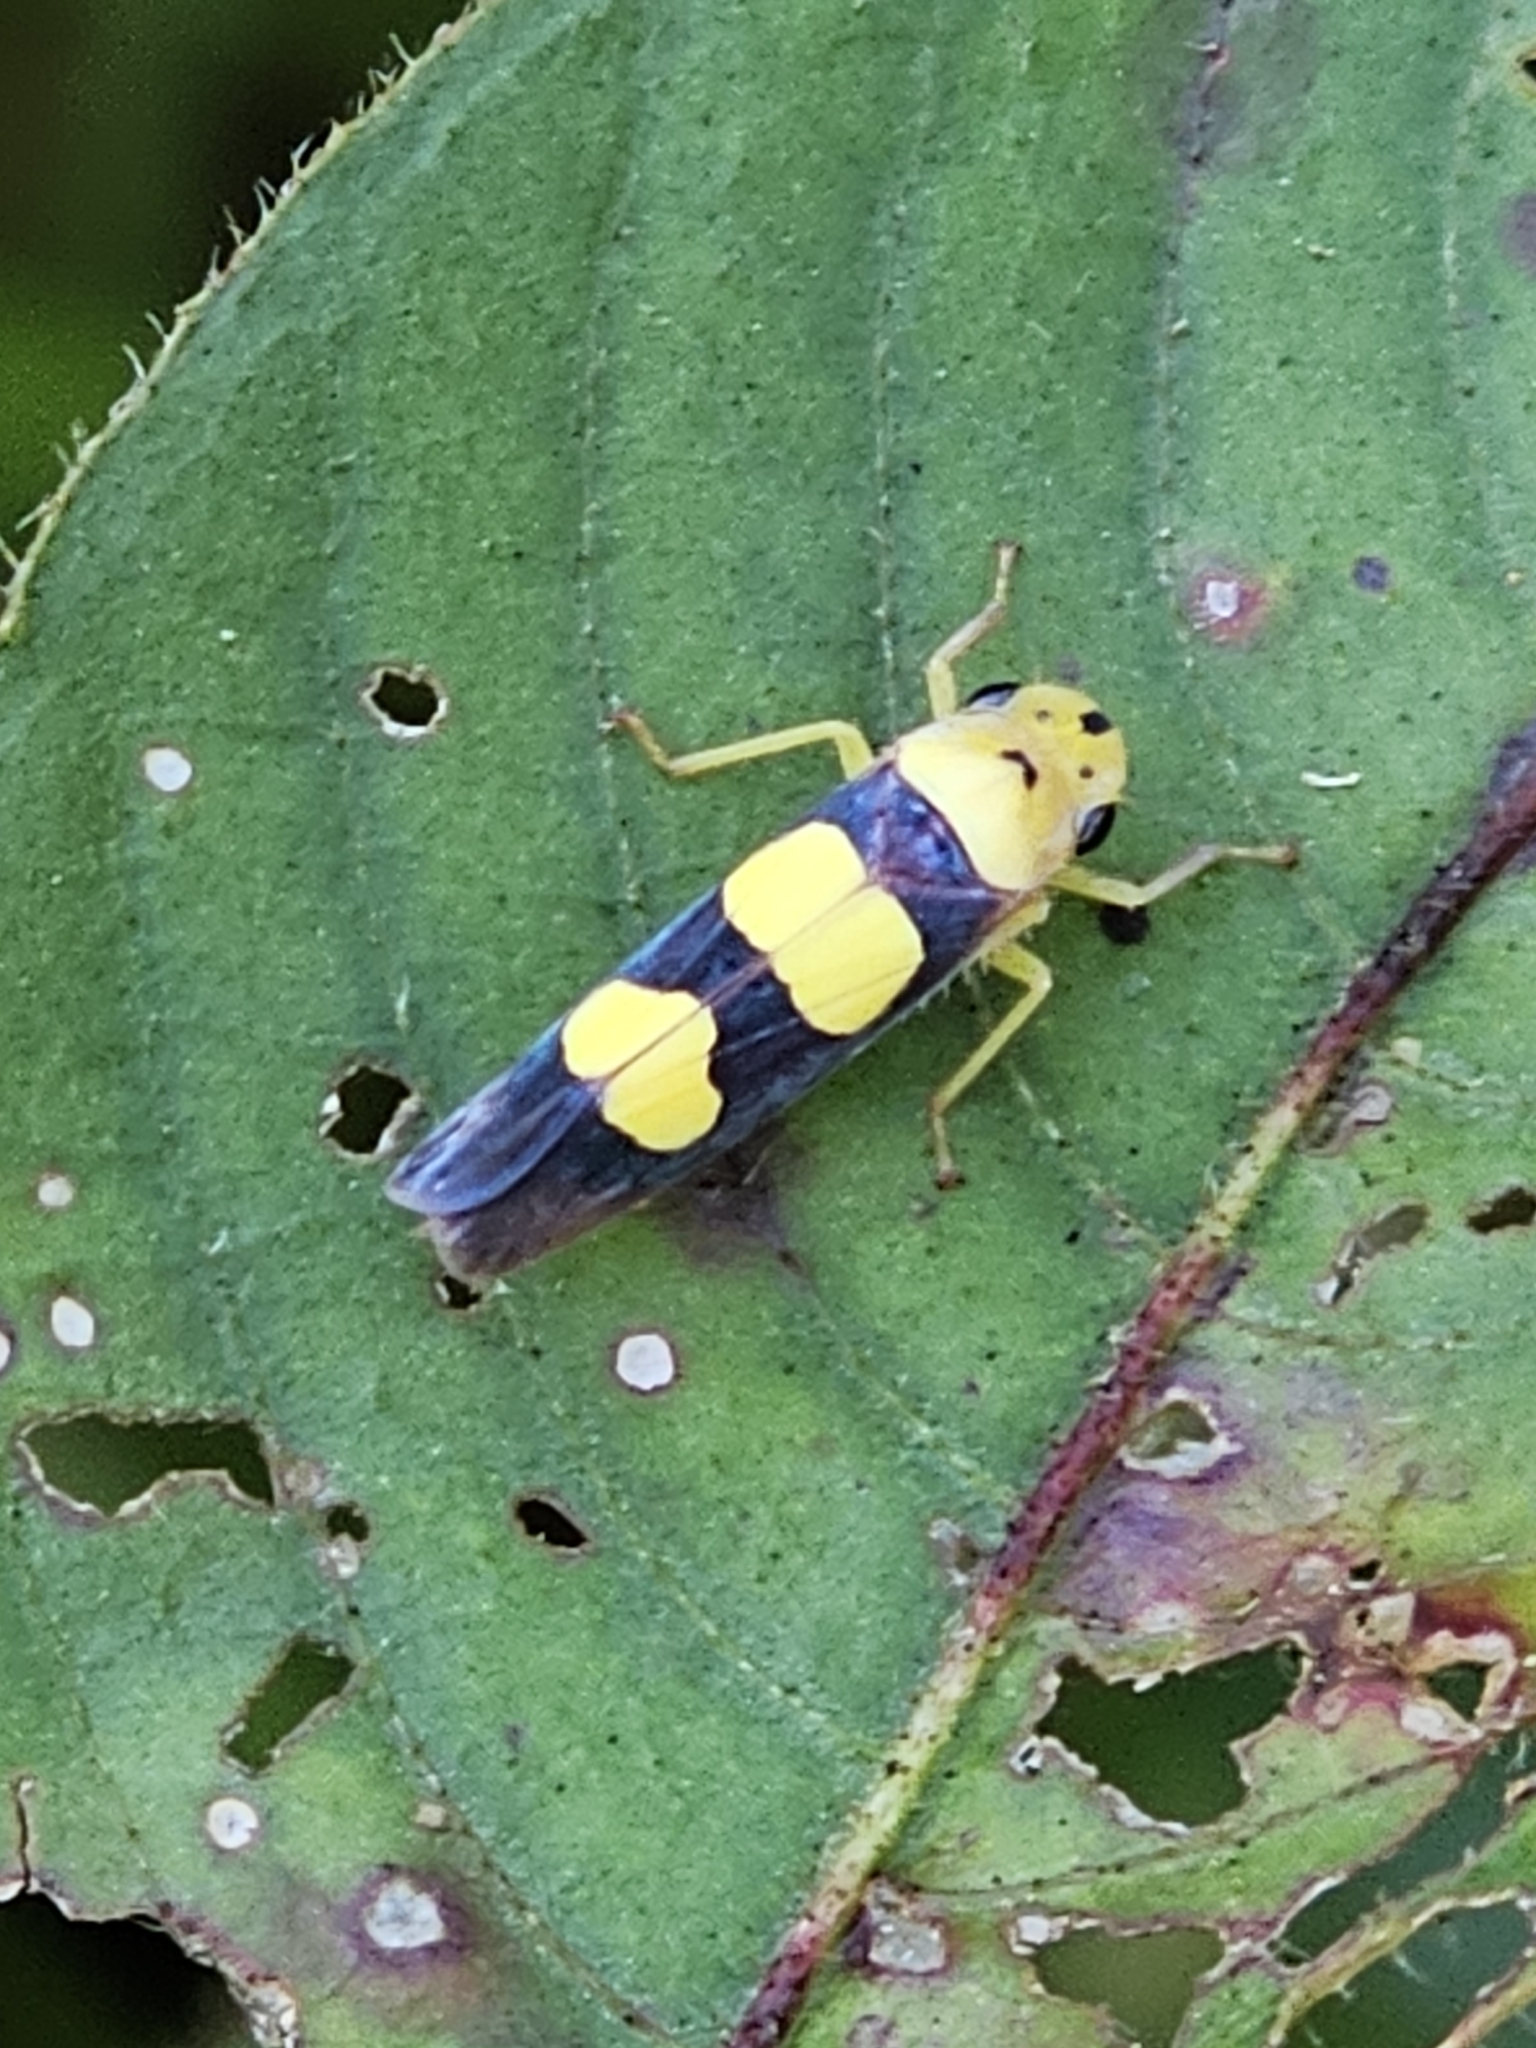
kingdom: Animalia
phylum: Arthropoda
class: Insecta
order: Hemiptera
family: Cicadellidae
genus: Tettisama
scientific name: Tettisama bisellata
